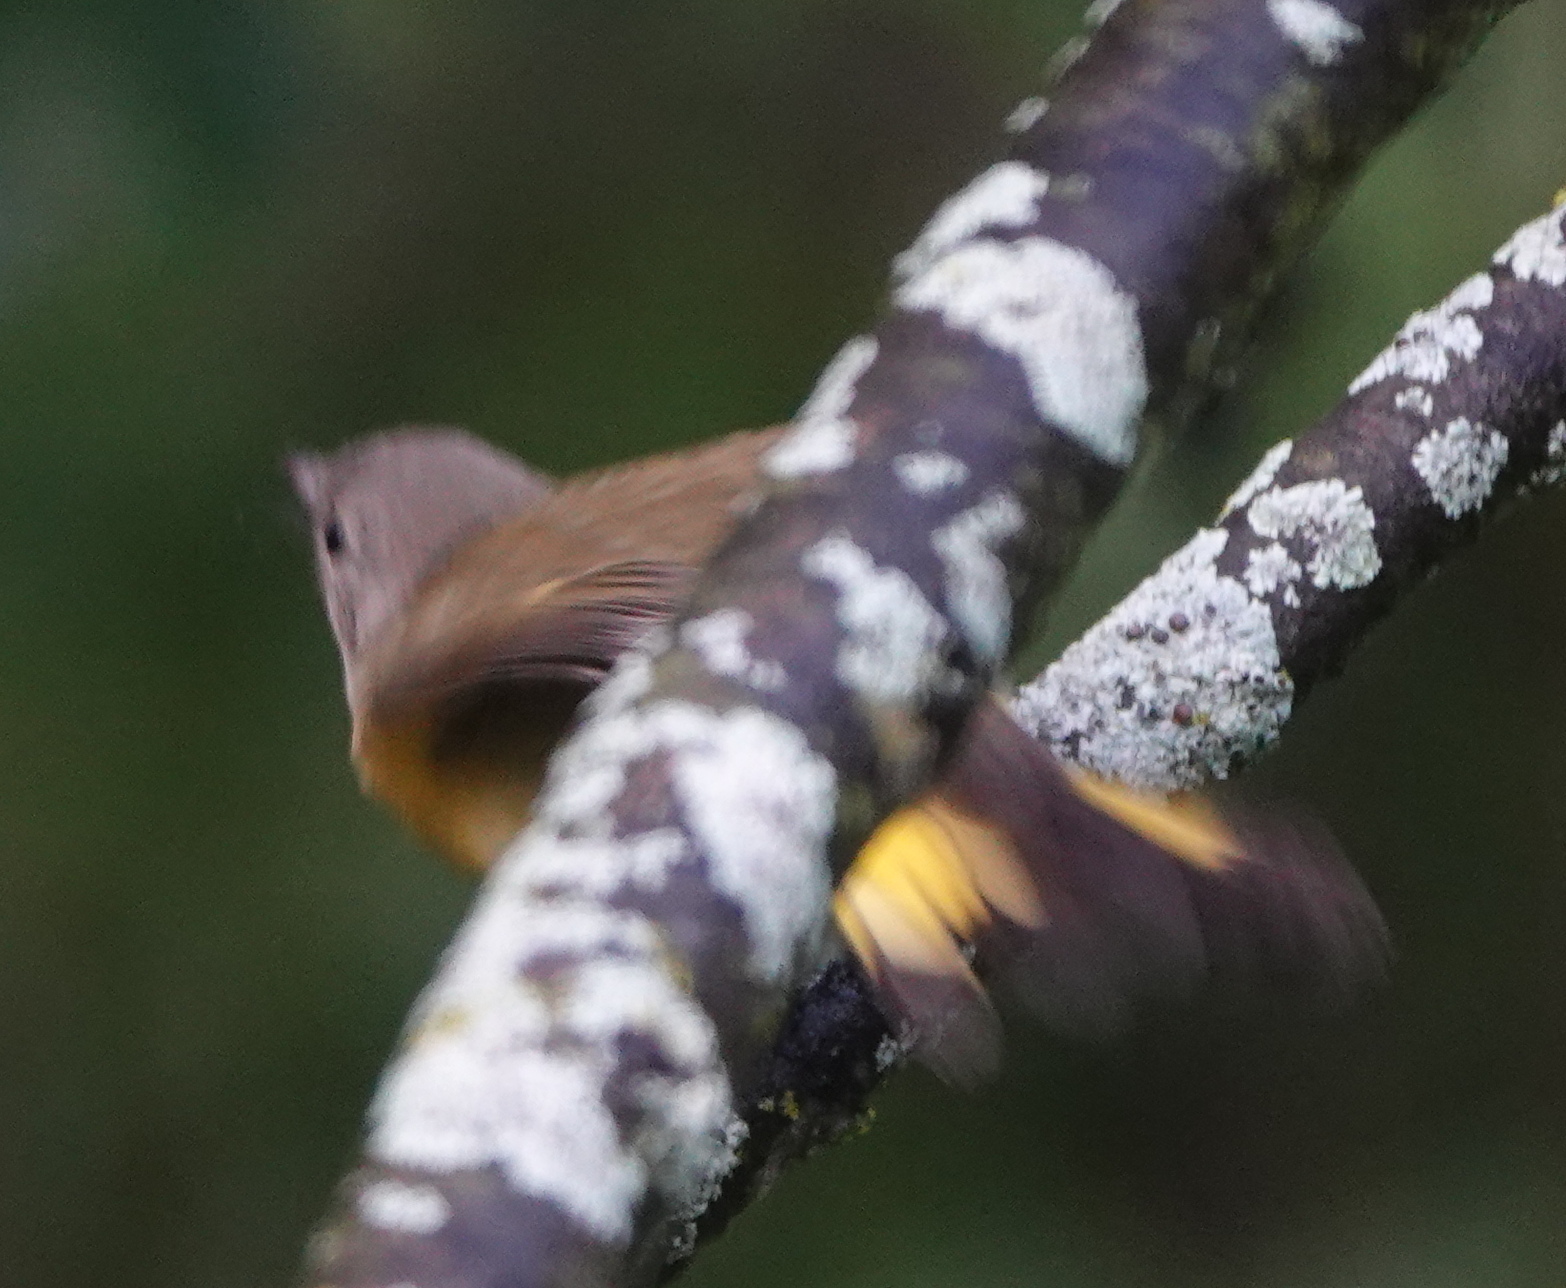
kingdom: Animalia
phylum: Chordata
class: Aves
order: Passeriformes
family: Parulidae
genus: Setophaga
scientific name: Setophaga ruticilla
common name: American redstart
